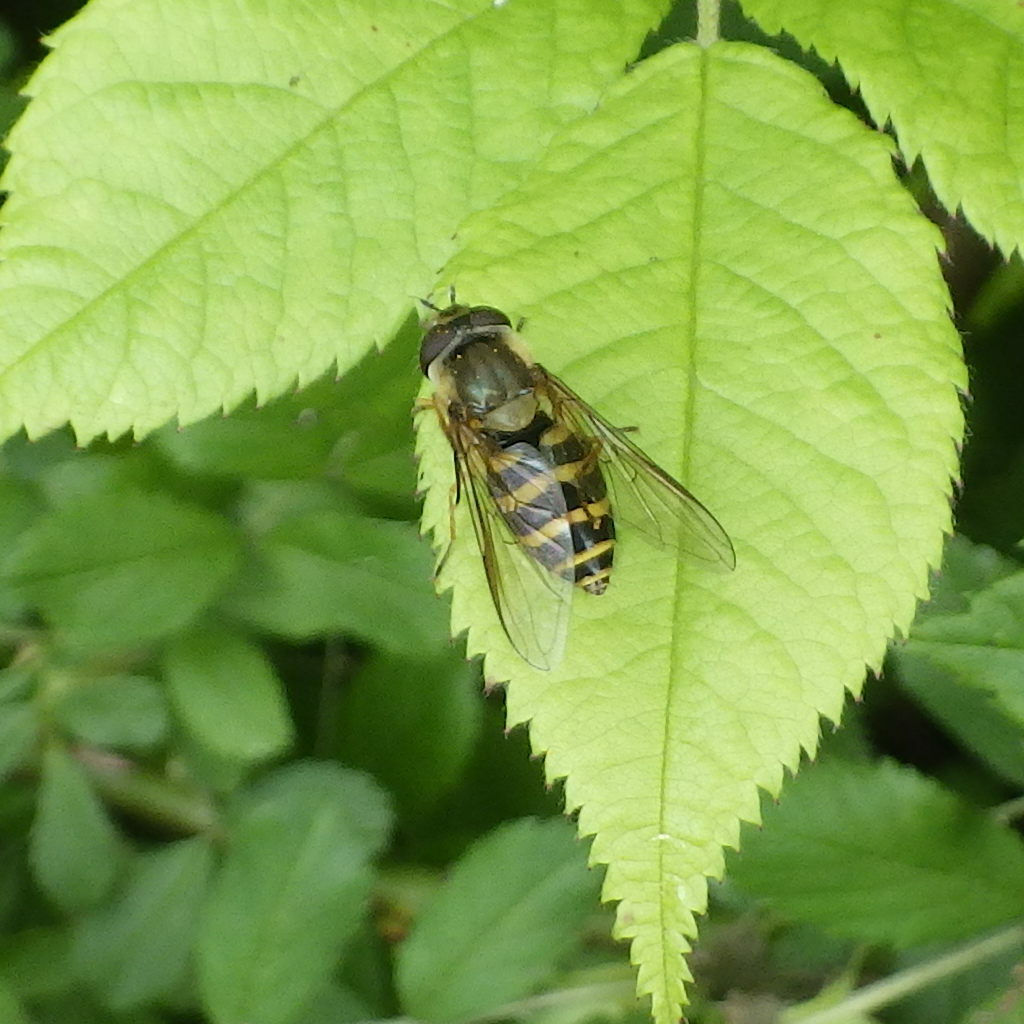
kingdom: Animalia
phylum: Arthropoda
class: Insecta
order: Diptera
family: Syrphidae
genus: Syrphus
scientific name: Syrphus
